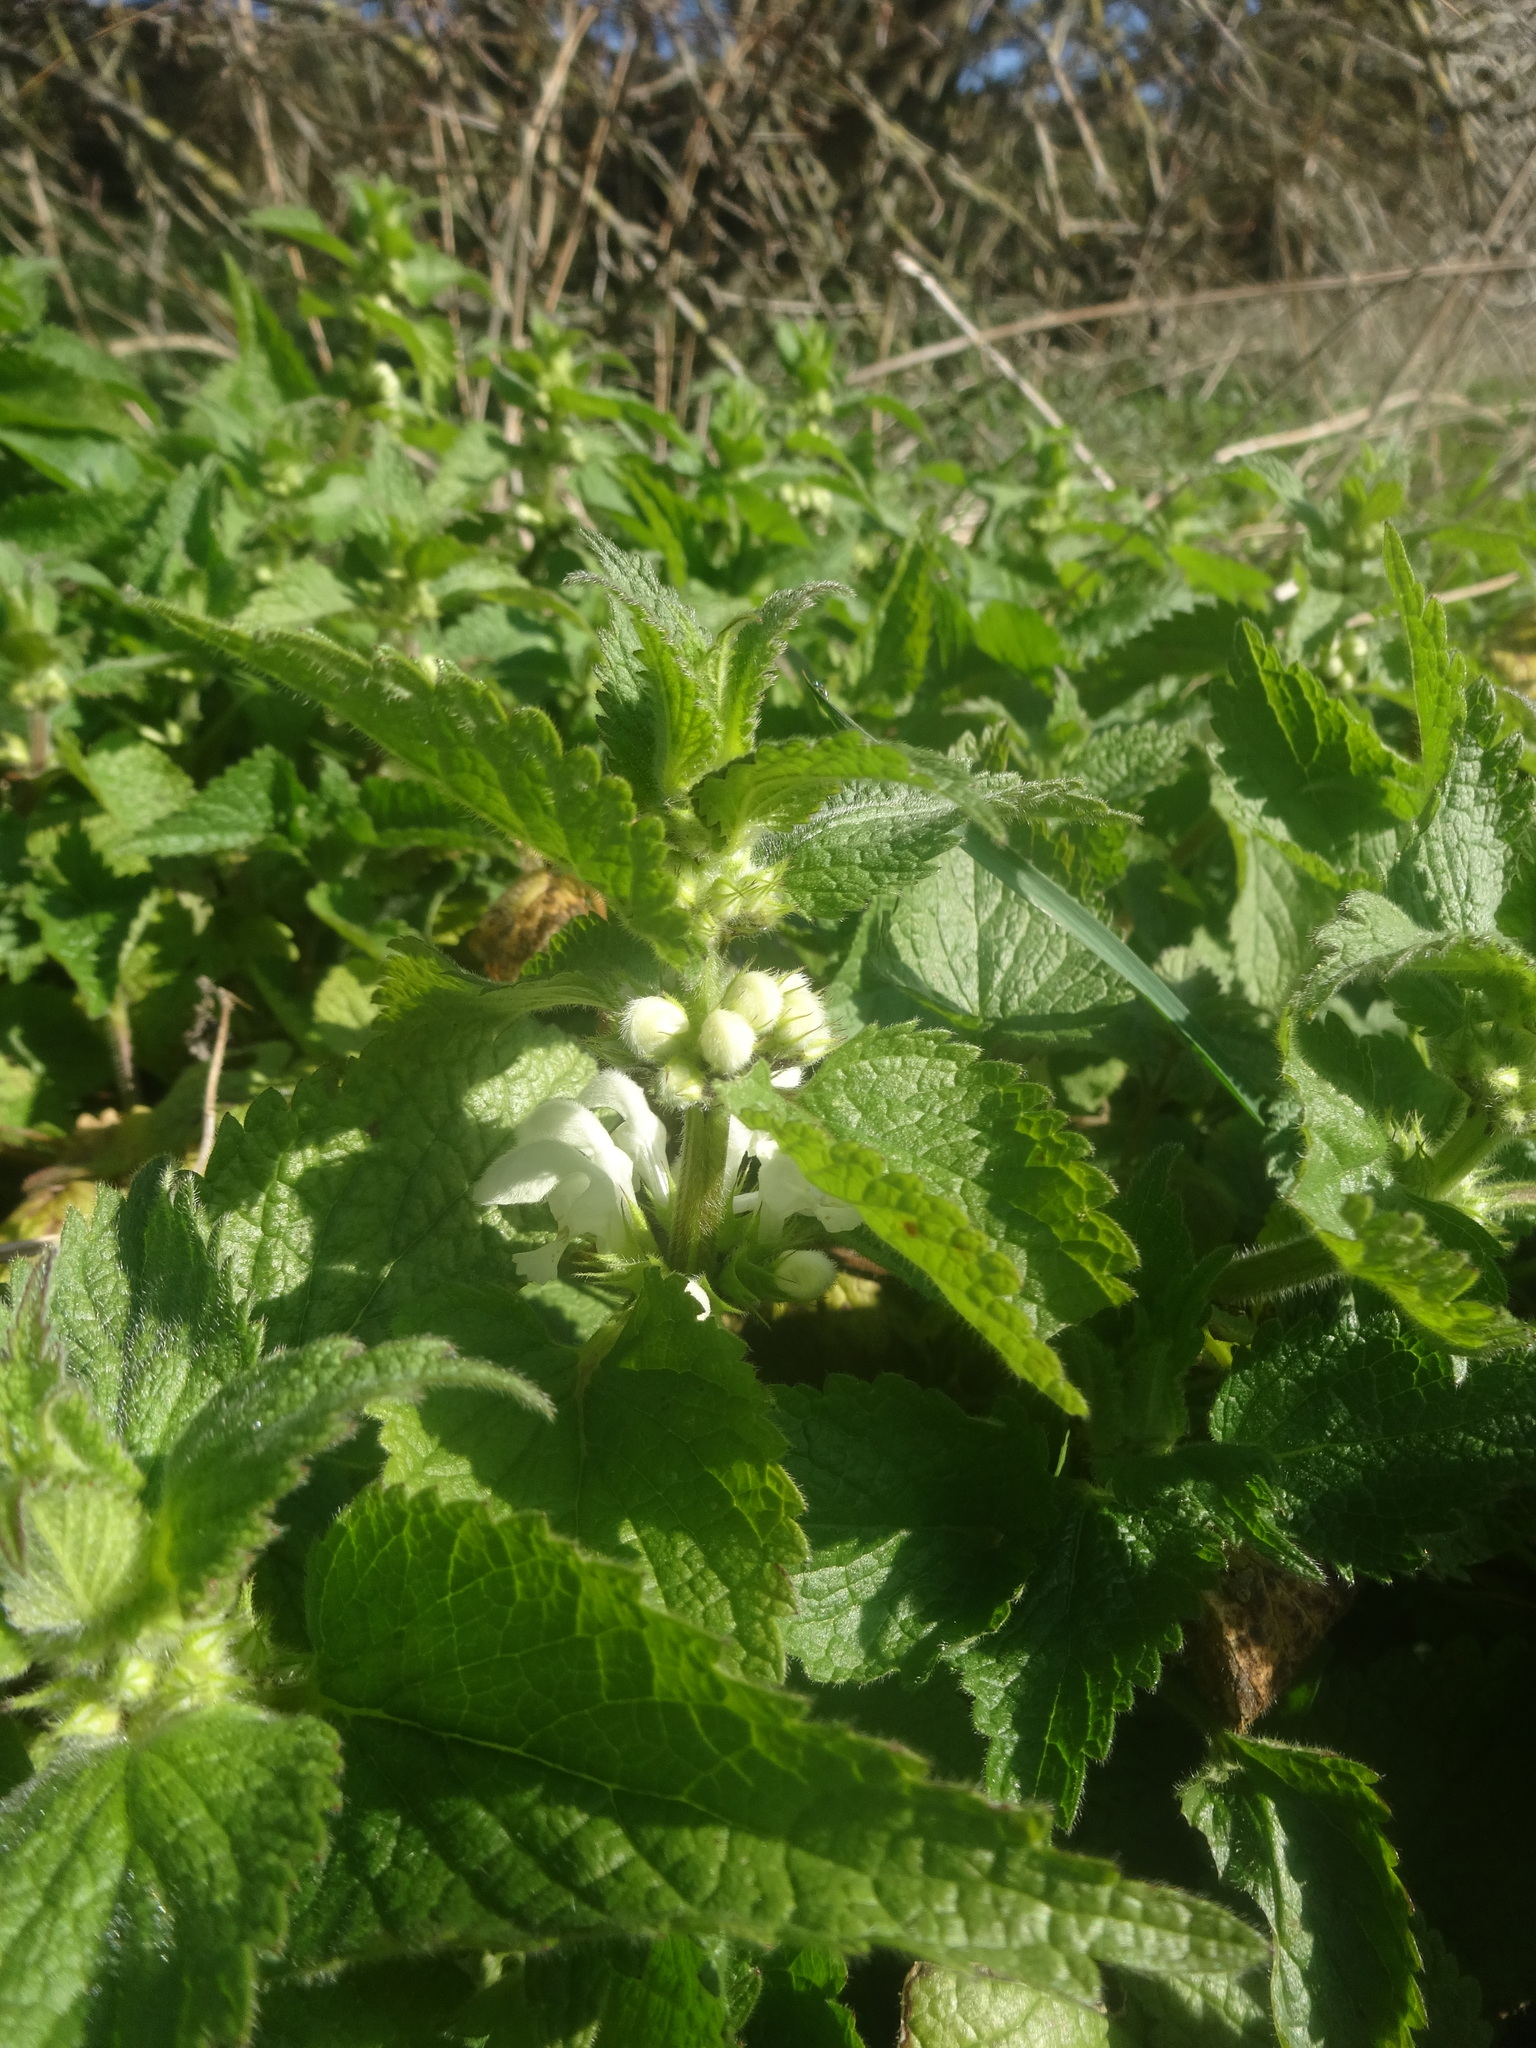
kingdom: Plantae
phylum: Tracheophyta
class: Magnoliopsida
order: Lamiales
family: Lamiaceae
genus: Lamium
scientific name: Lamium album
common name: White dead-nettle
